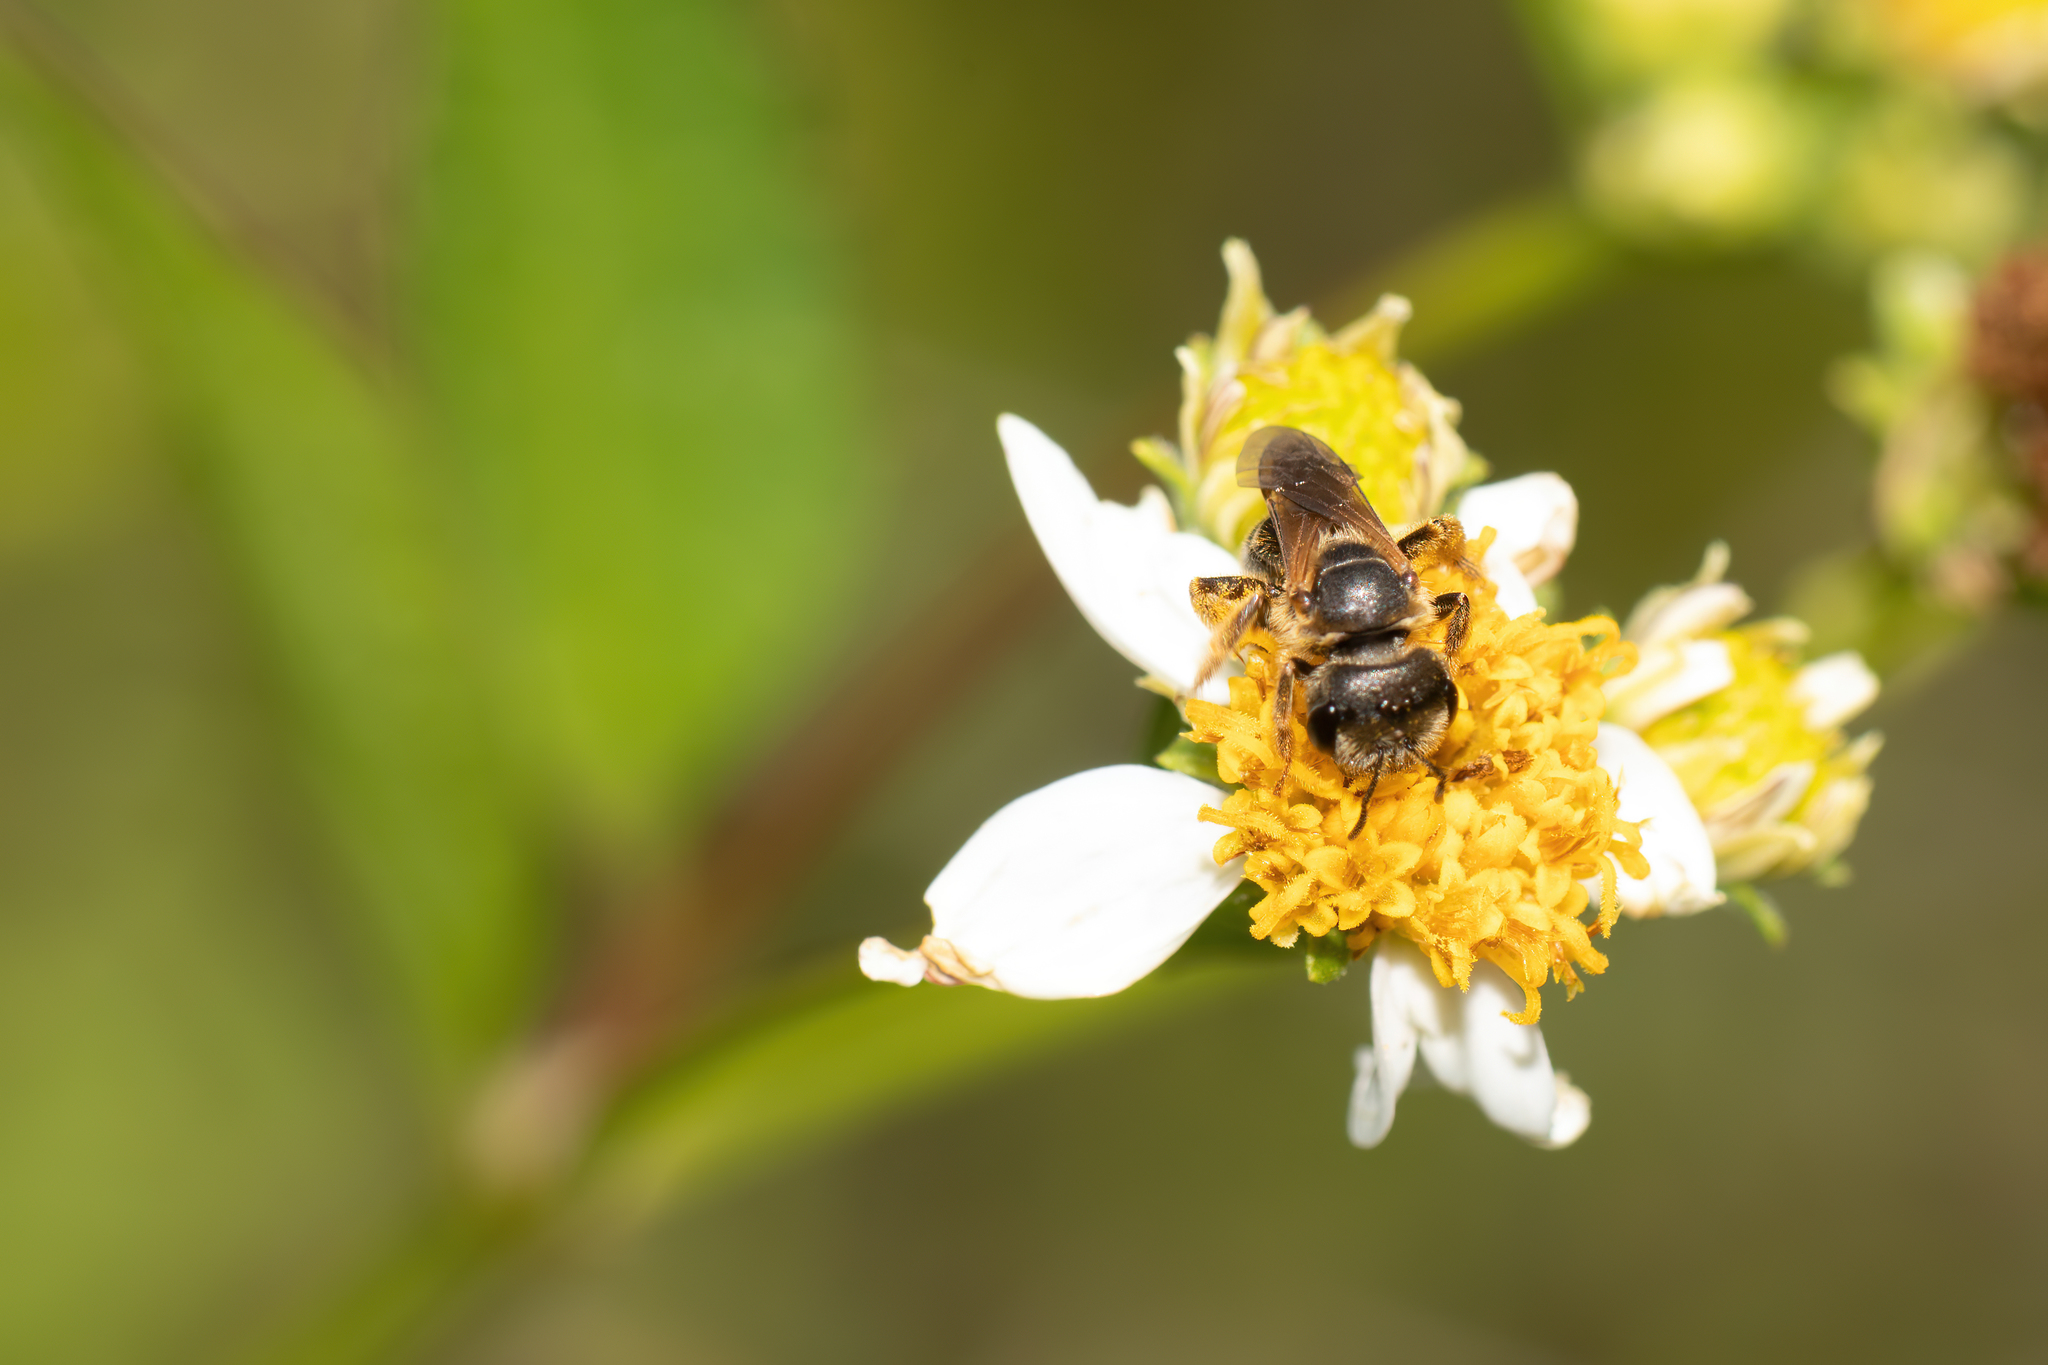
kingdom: Animalia
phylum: Arthropoda
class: Insecta
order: Hymenoptera
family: Halictidae
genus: Halictus
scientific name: Halictus poeyi
